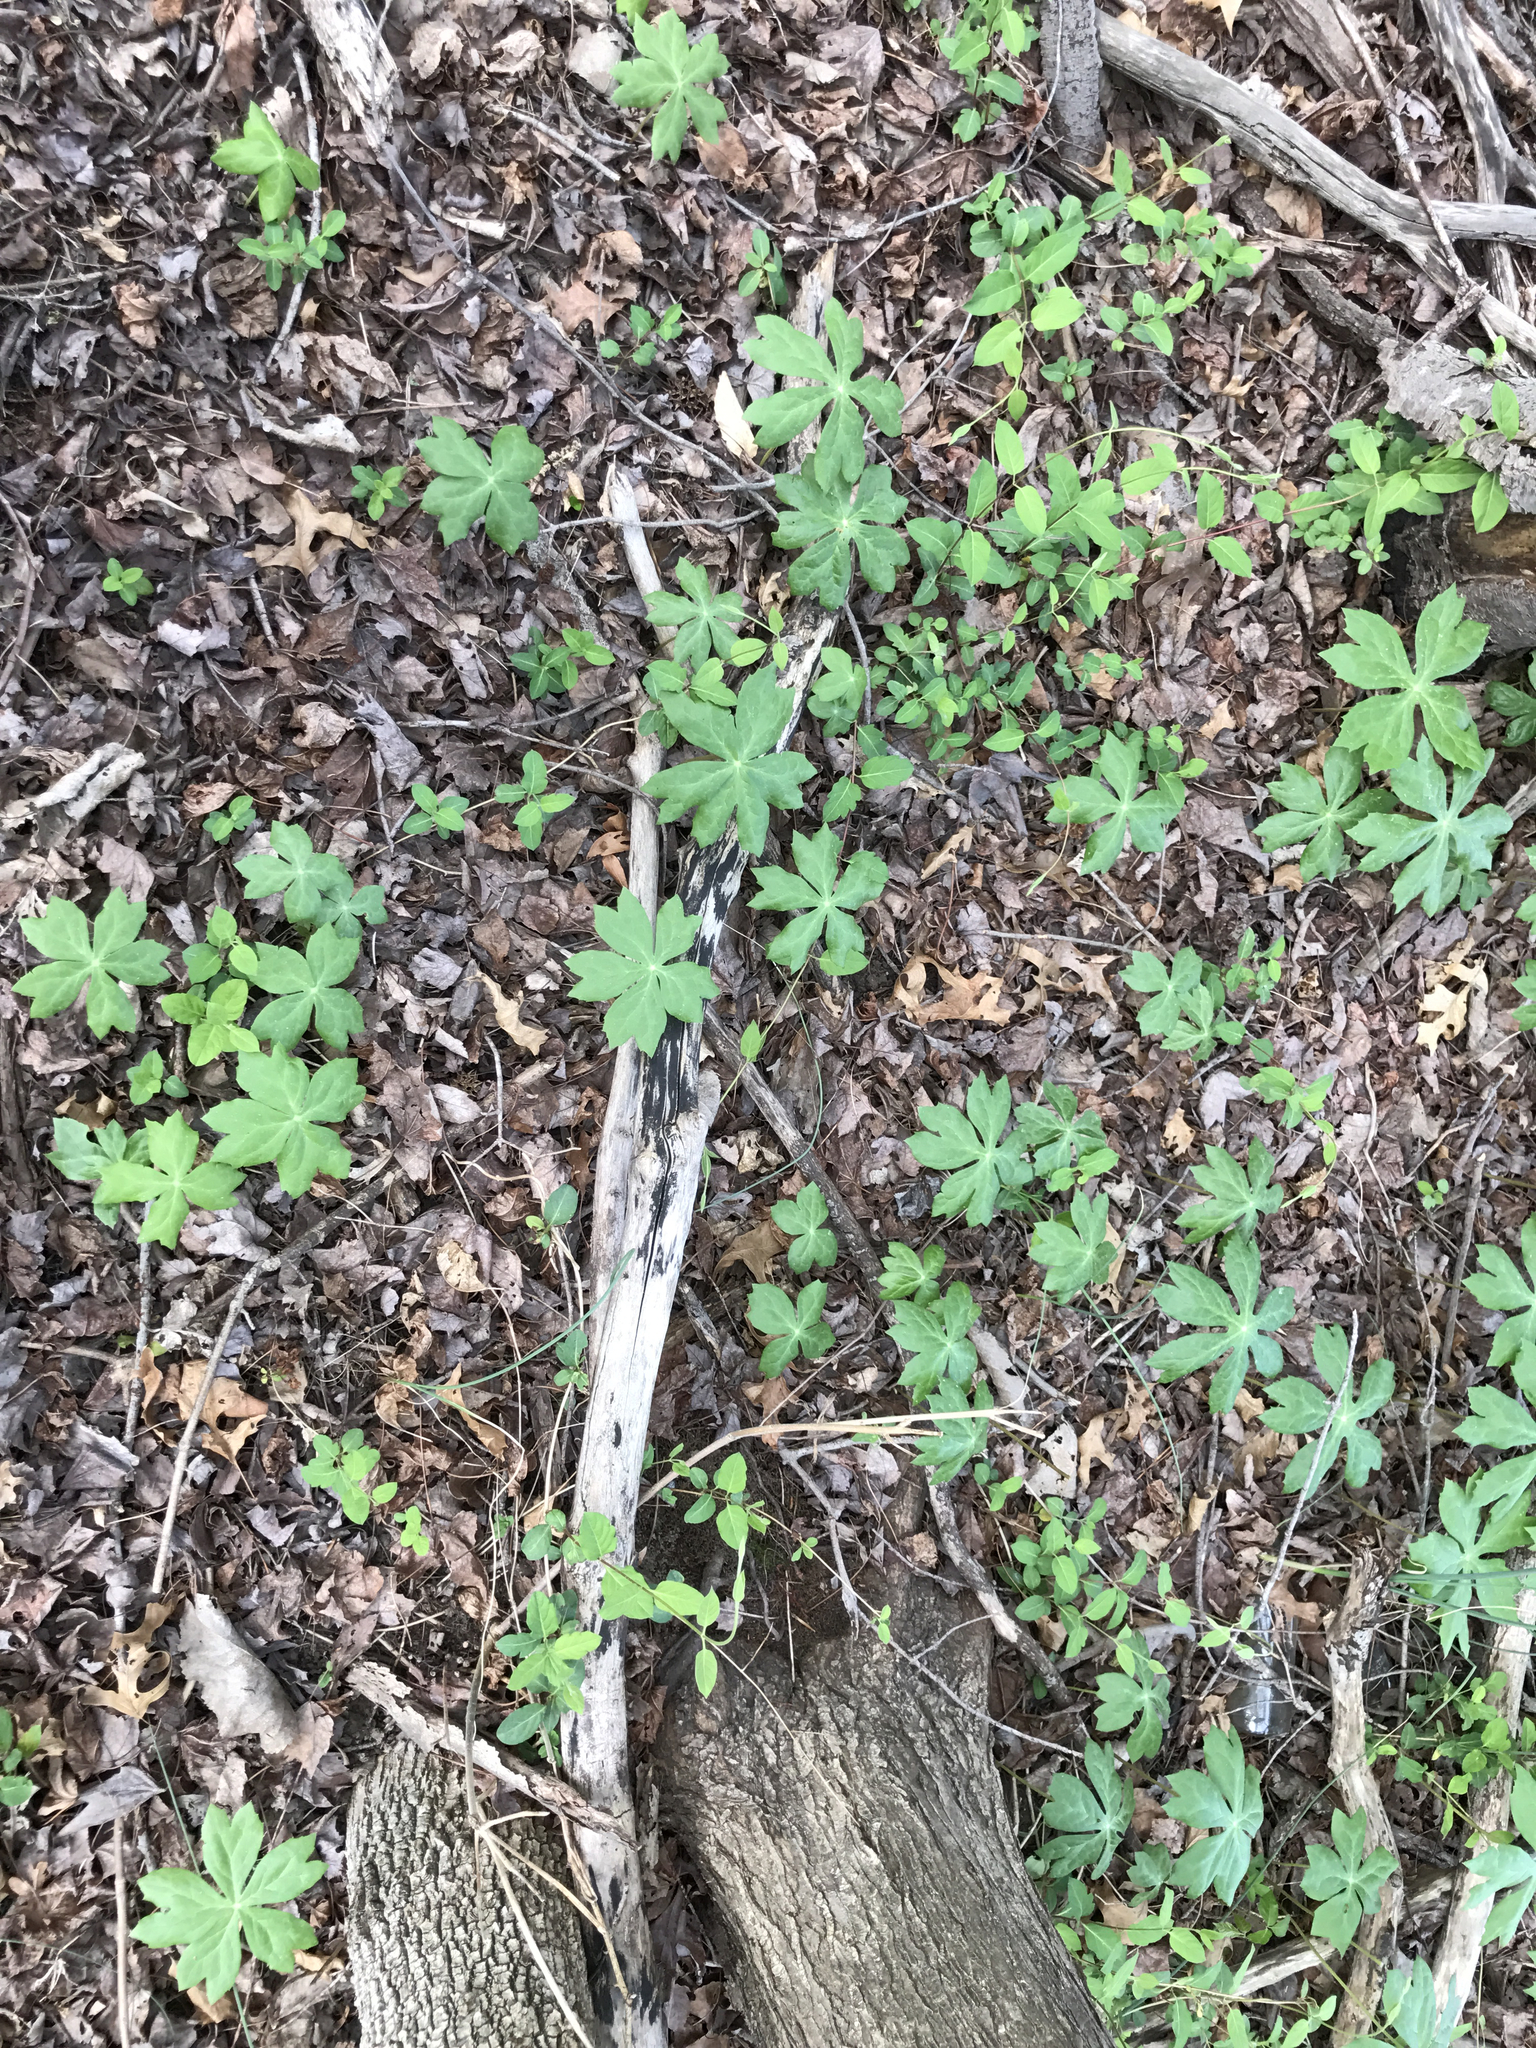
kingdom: Plantae
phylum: Tracheophyta
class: Magnoliopsida
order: Ranunculales
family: Berberidaceae
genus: Podophyllum
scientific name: Podophyllum peltatum
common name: Wild mandrake
